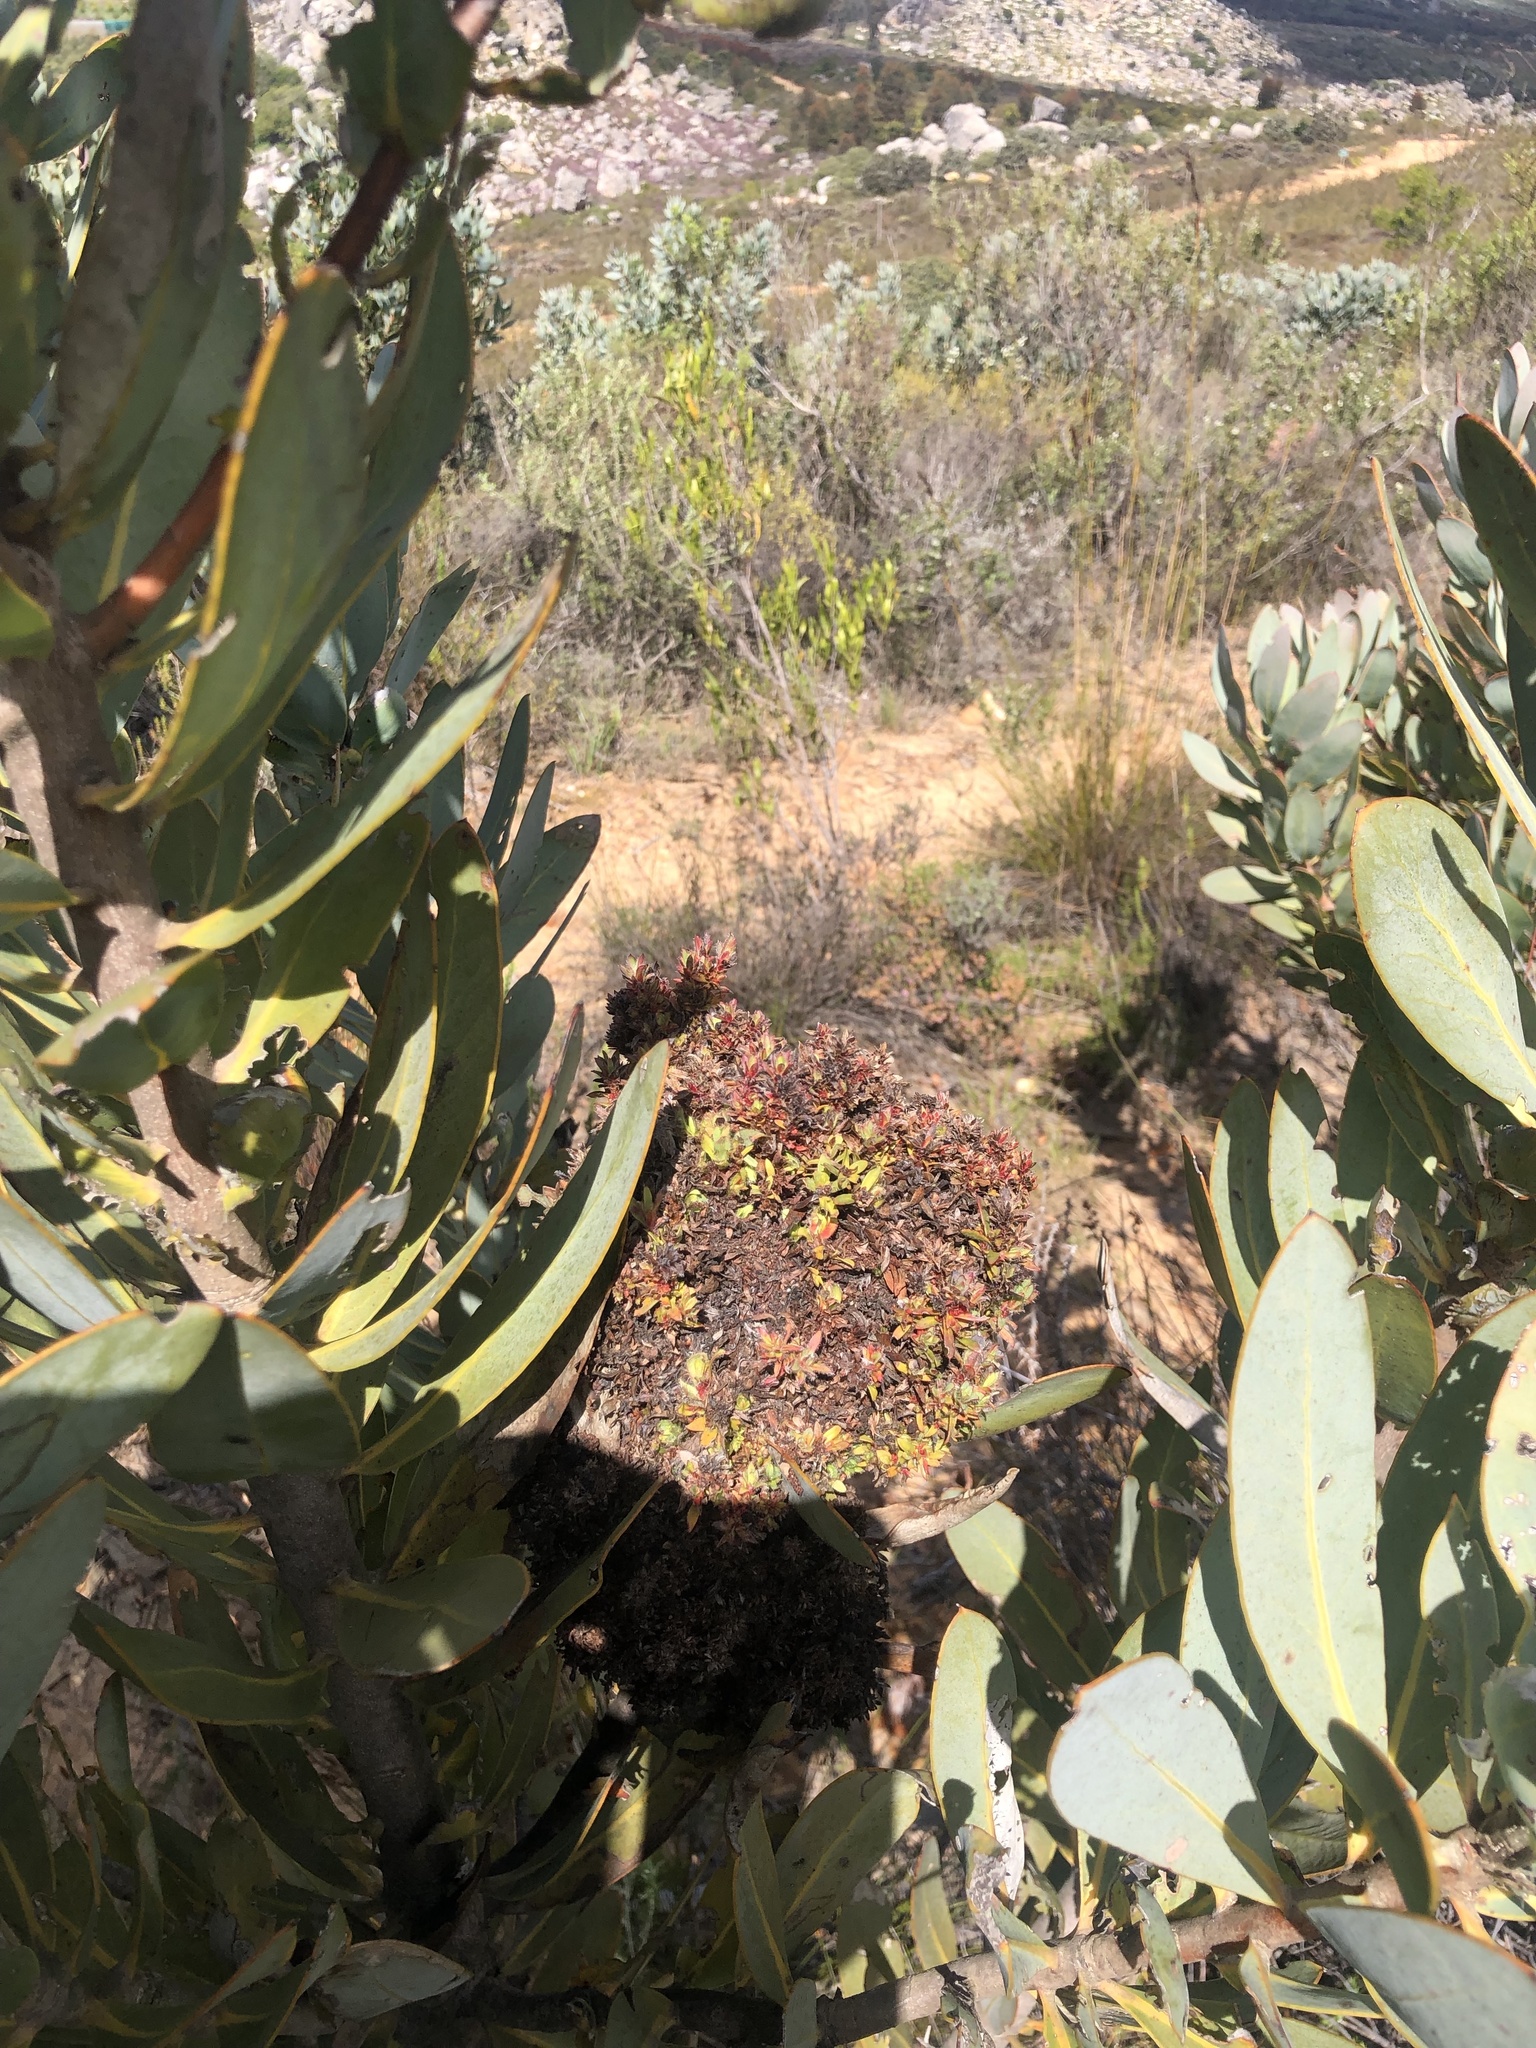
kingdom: Bacteria
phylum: Firmicutes
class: Bacilli
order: Acholeplasmatales
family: Acholeplasmataceae
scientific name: Acholeplasmataceae
